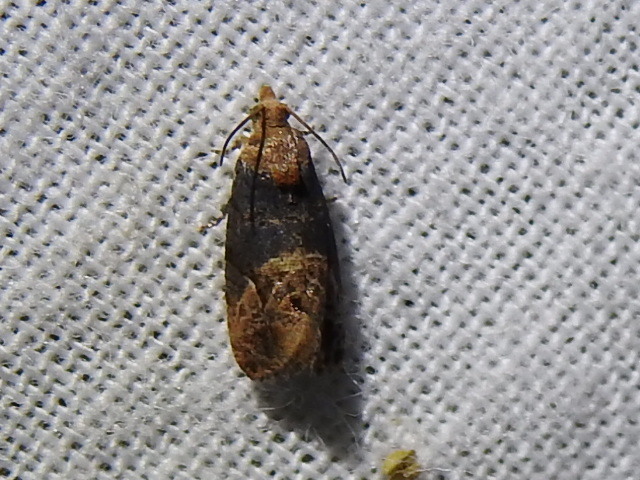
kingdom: Animalia
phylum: Arthropoda
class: Insecta
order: Lepidoptera
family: Tortricidae
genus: Paralobesia
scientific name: Paralobesia viteana
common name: Grape berry moth
